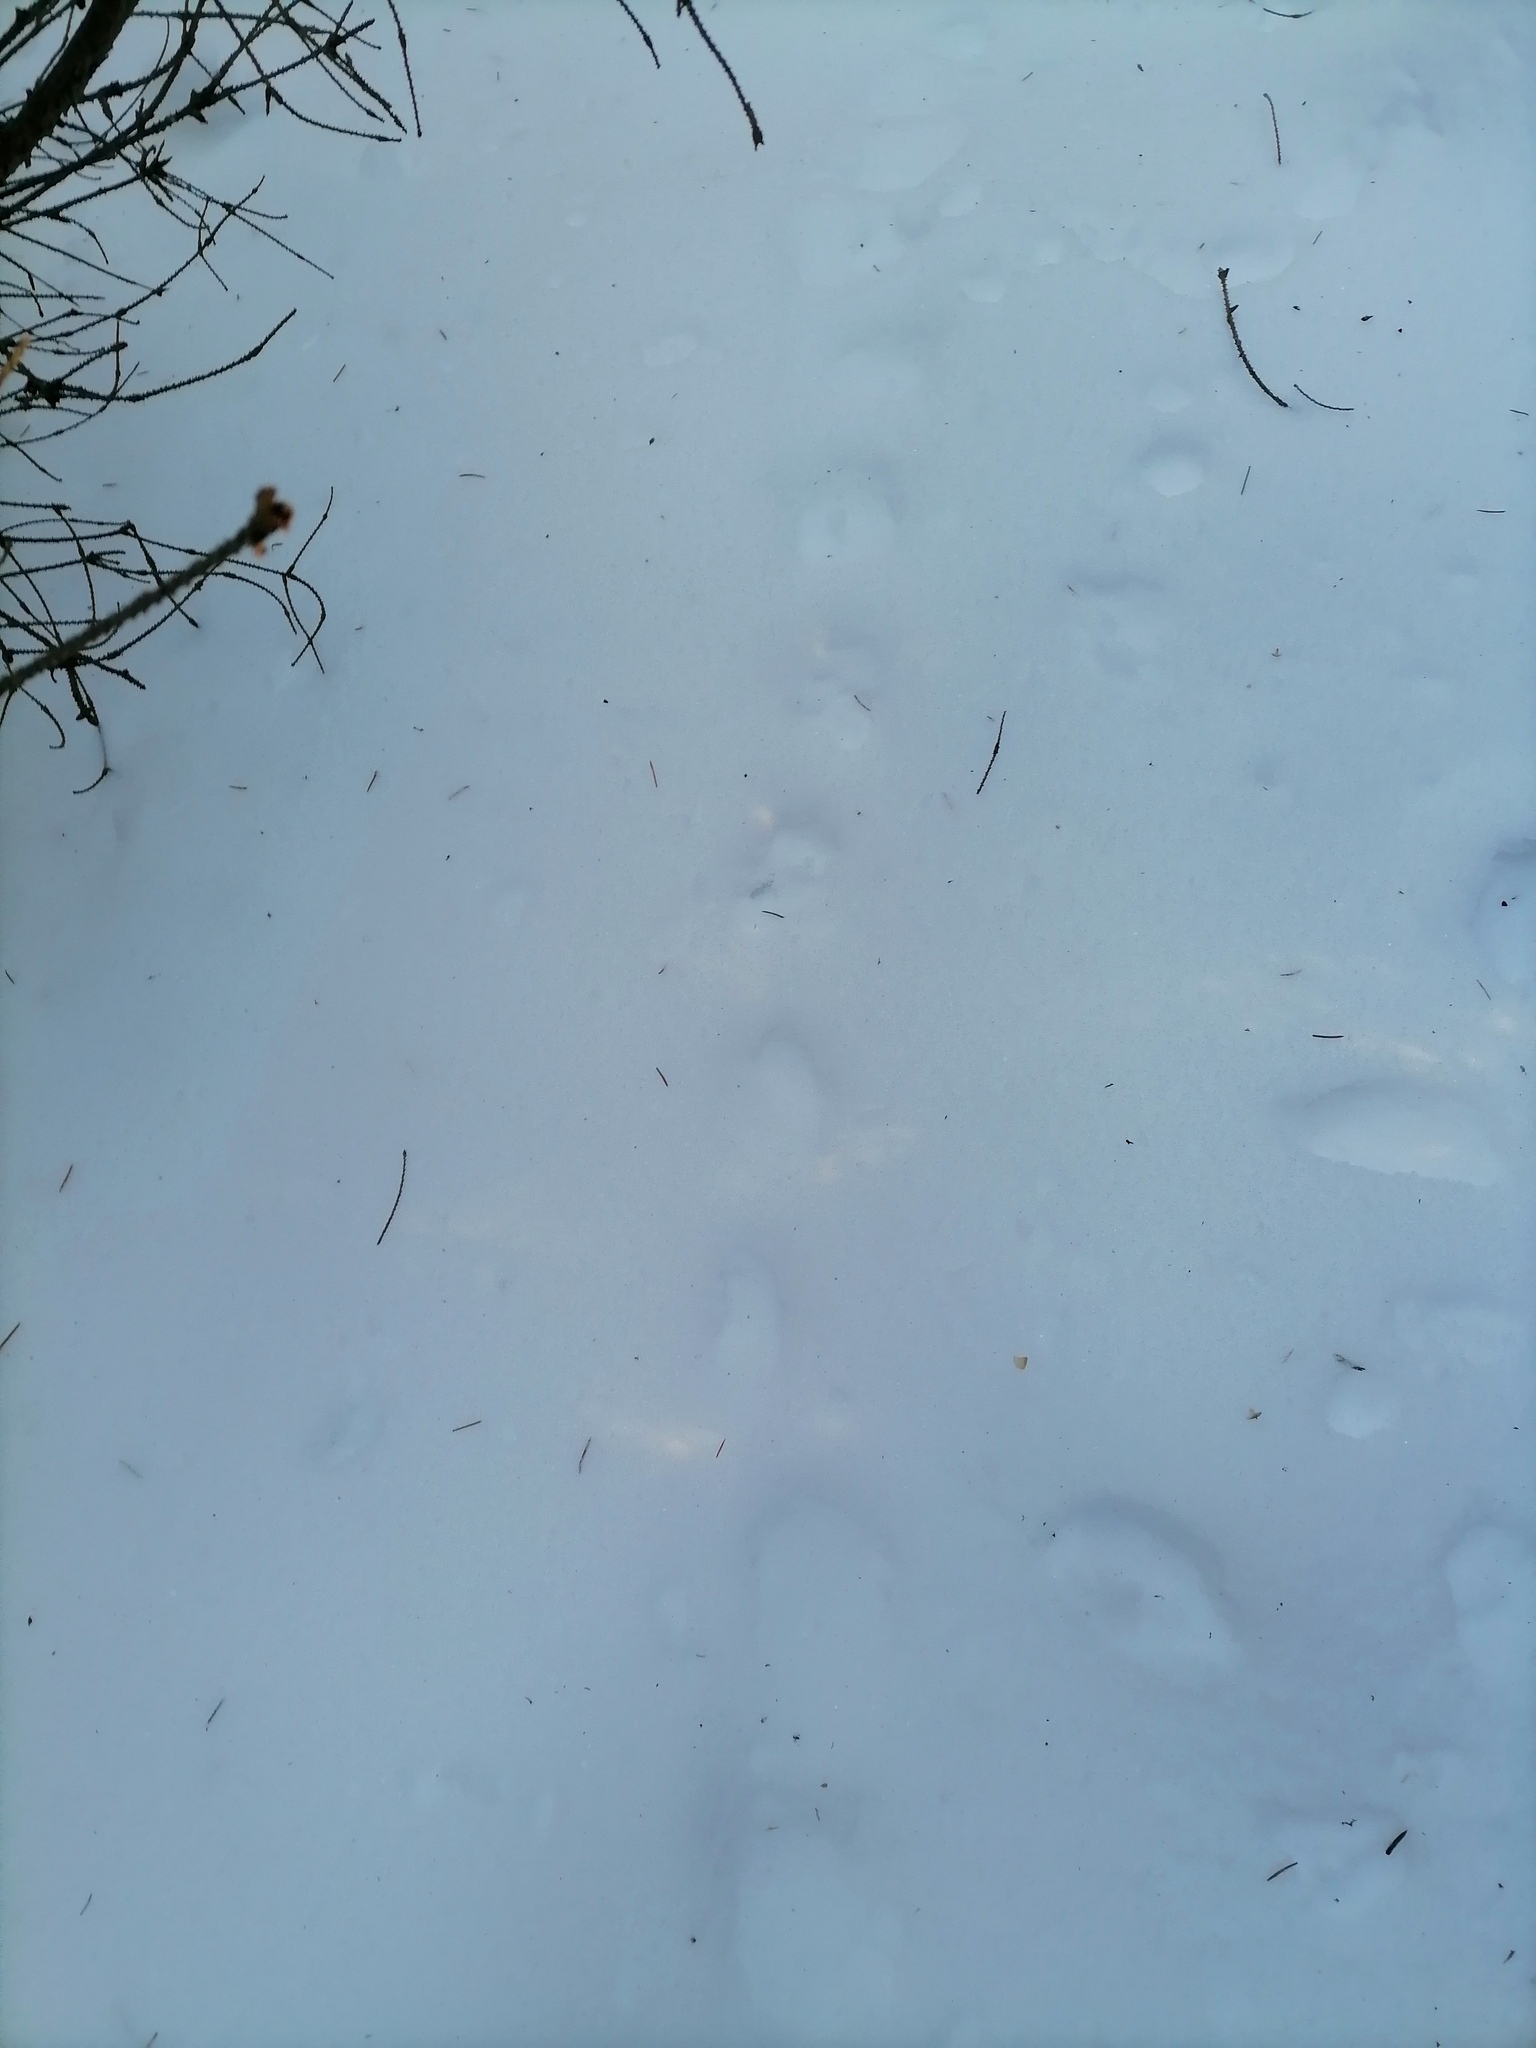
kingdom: Animalia
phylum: Chordata
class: Aves
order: Galliformes
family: Phasianidae
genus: Tetrastes
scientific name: Tetrastes bonasia
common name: Hazel grouse
